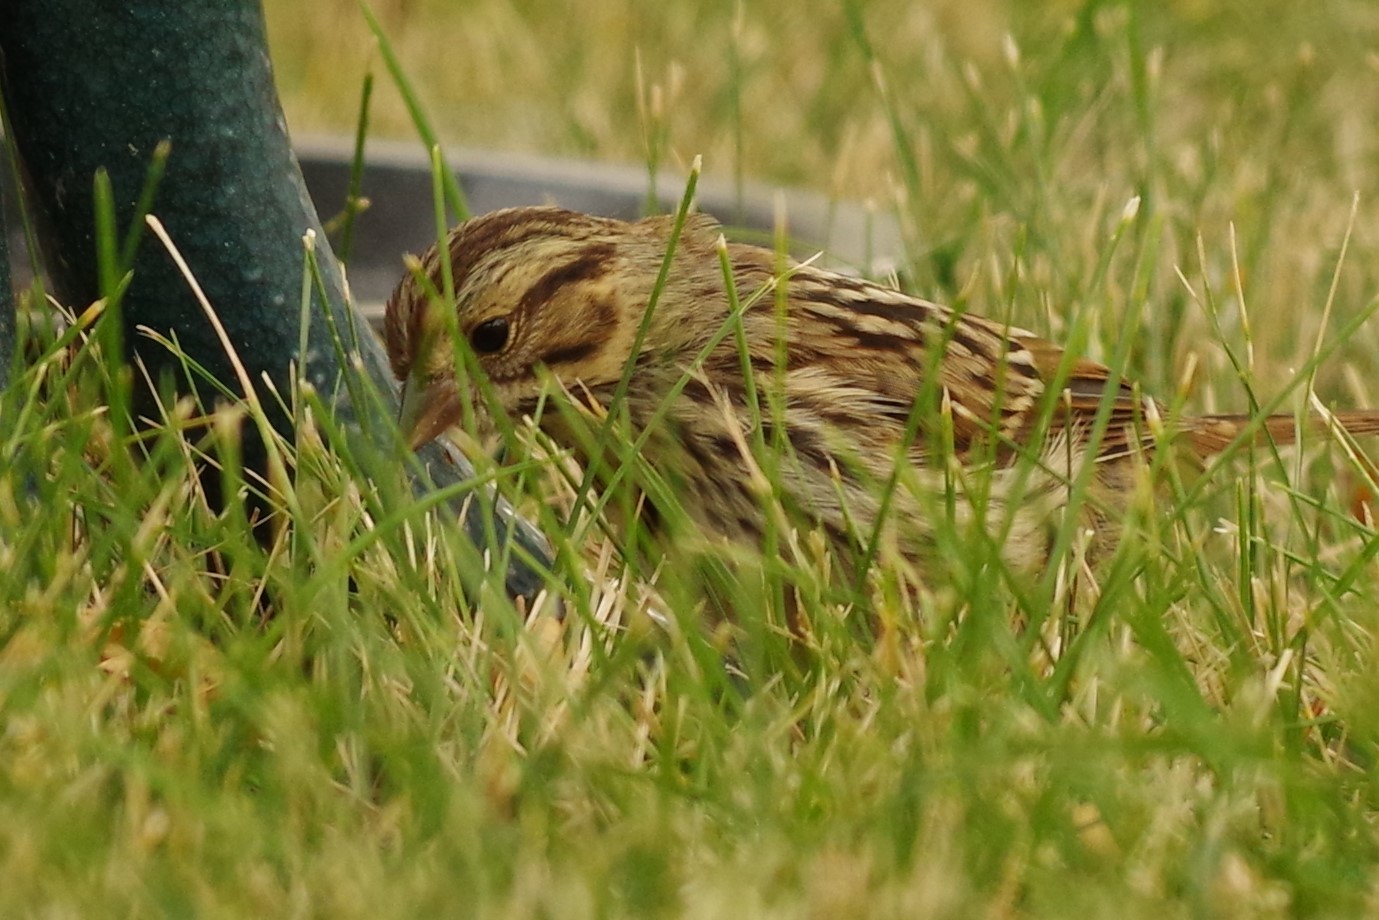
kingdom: Animalia
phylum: Chordata
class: Aves
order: Passeriformes
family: Passerellidae
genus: Melospiza
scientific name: Melospiza melodia
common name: Song sparrow
